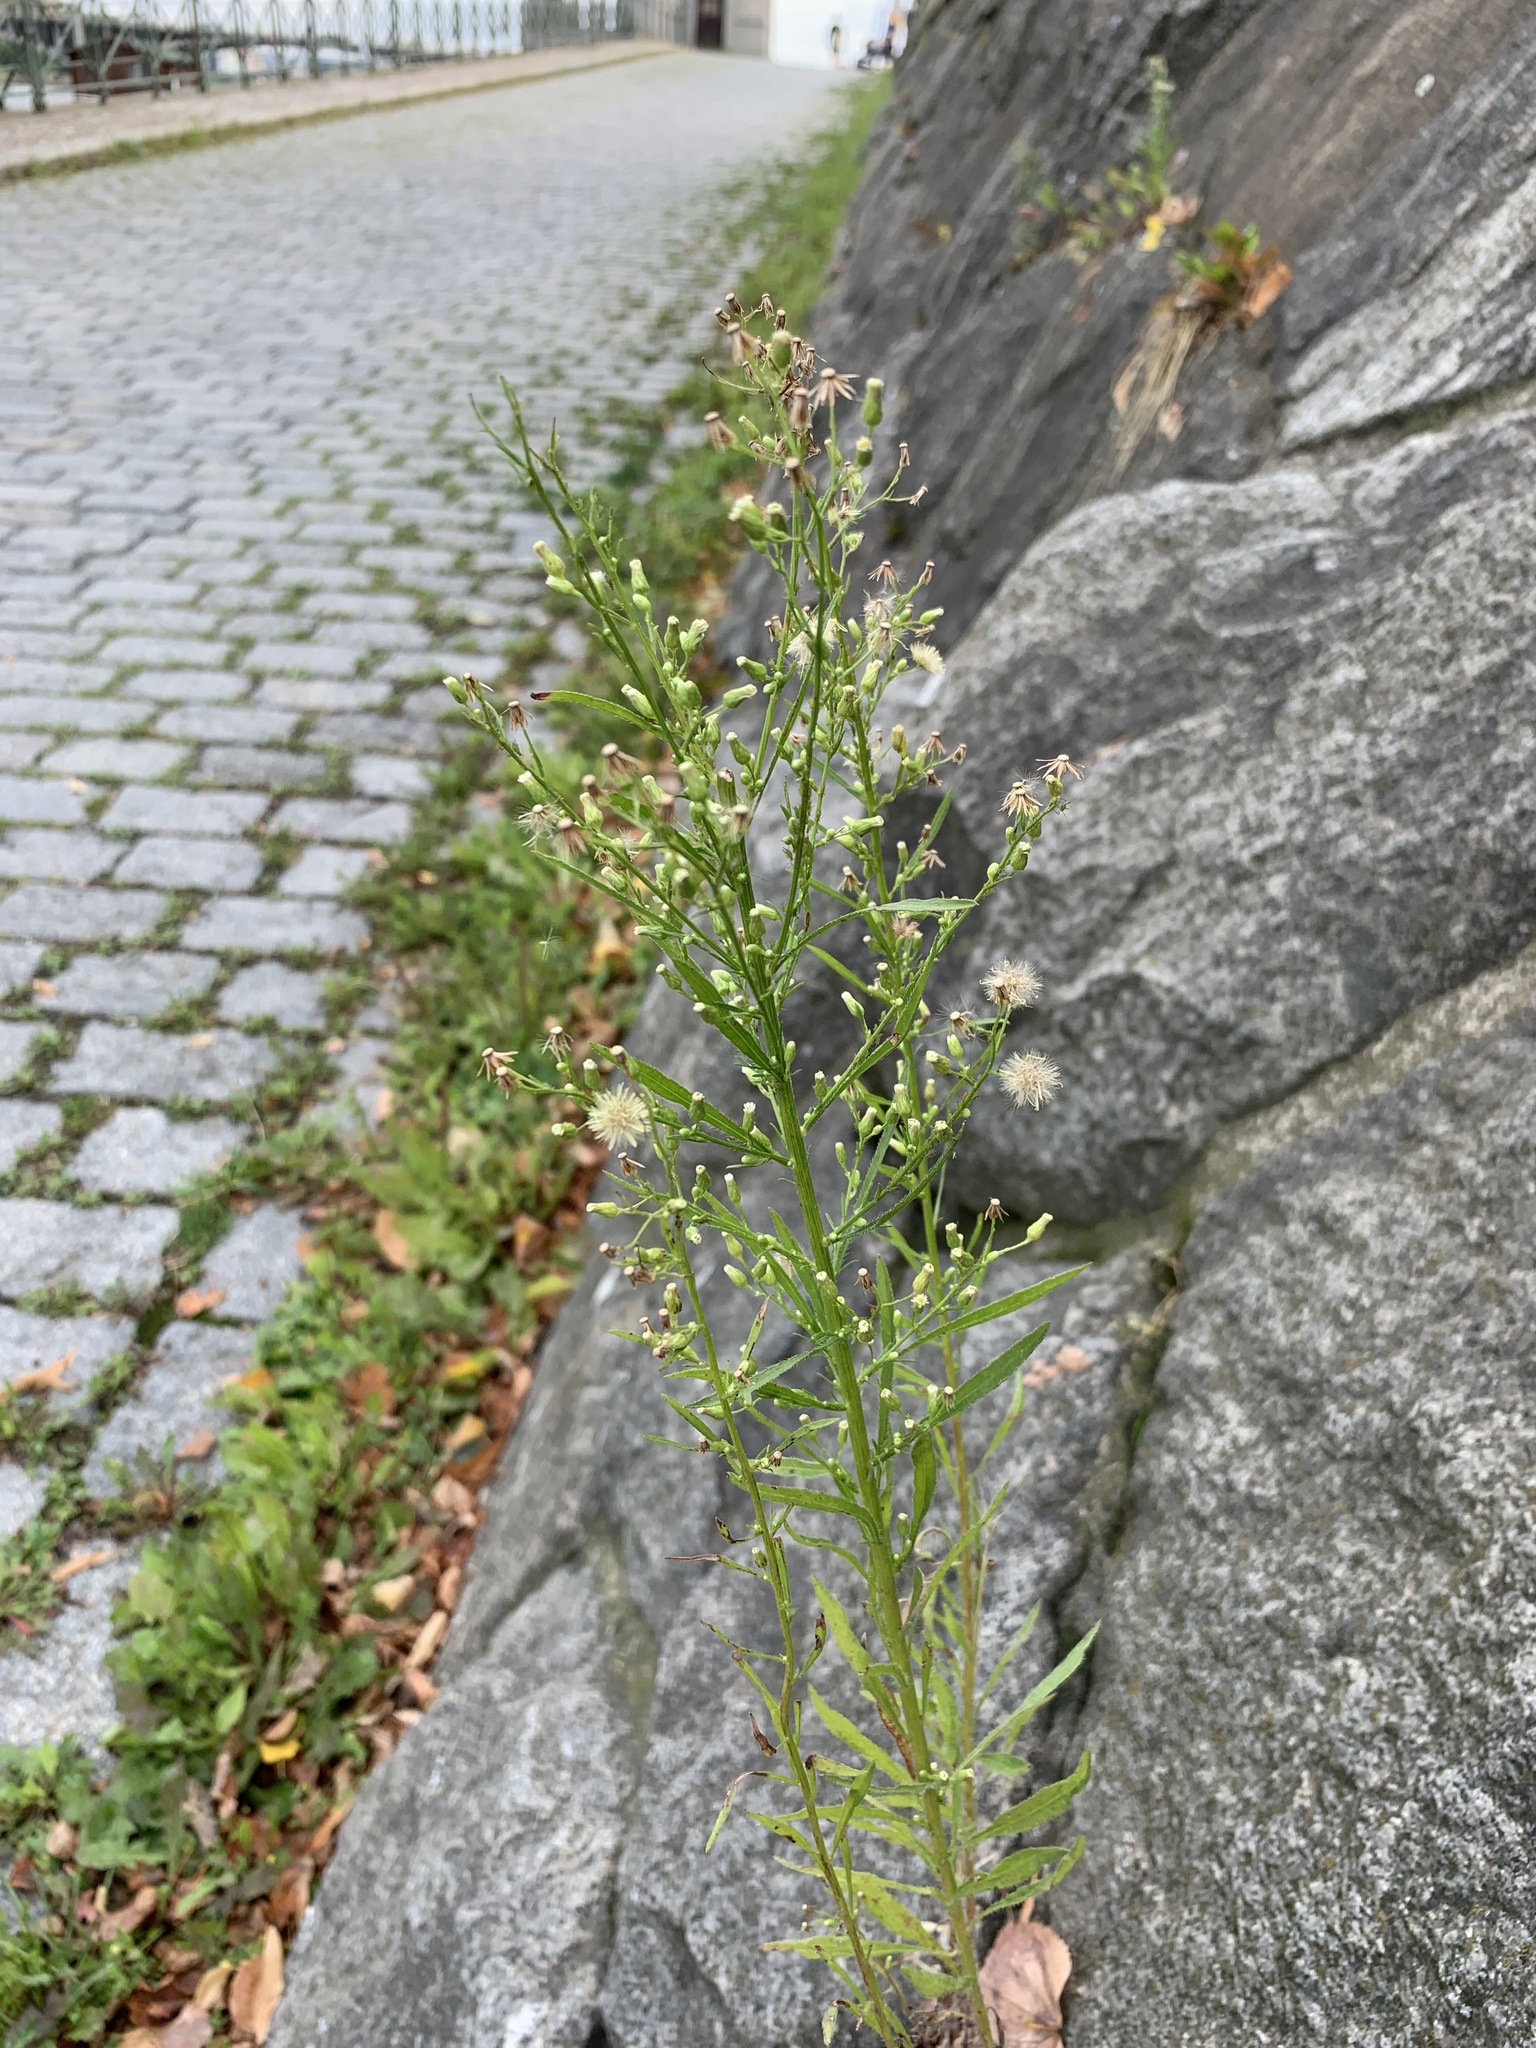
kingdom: Plantae
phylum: Tracheophyta
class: Magnoliopsida
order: Asterales
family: Asteraceae
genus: Erigeron
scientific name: Erigeron canadensis
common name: Canadian fleabane
